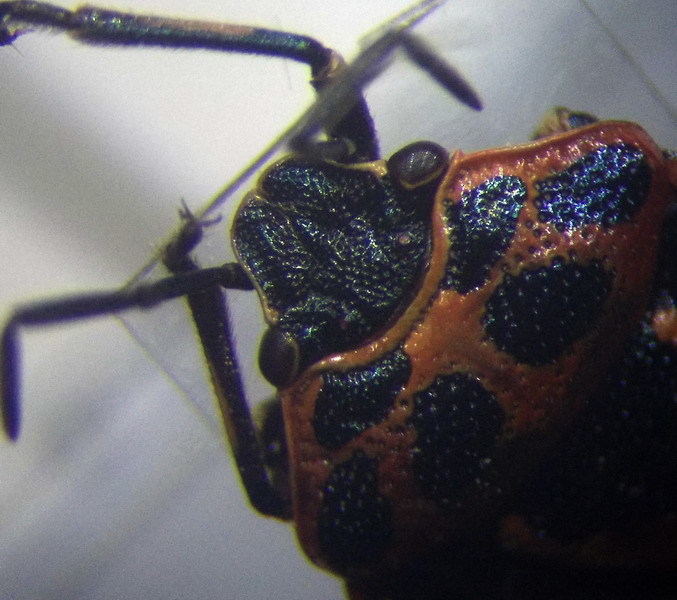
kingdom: Animalia
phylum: Arthropoda
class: Insecta
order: Hemiptera
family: Pentatomidae
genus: Eurydema
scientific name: Eurydema ornata
